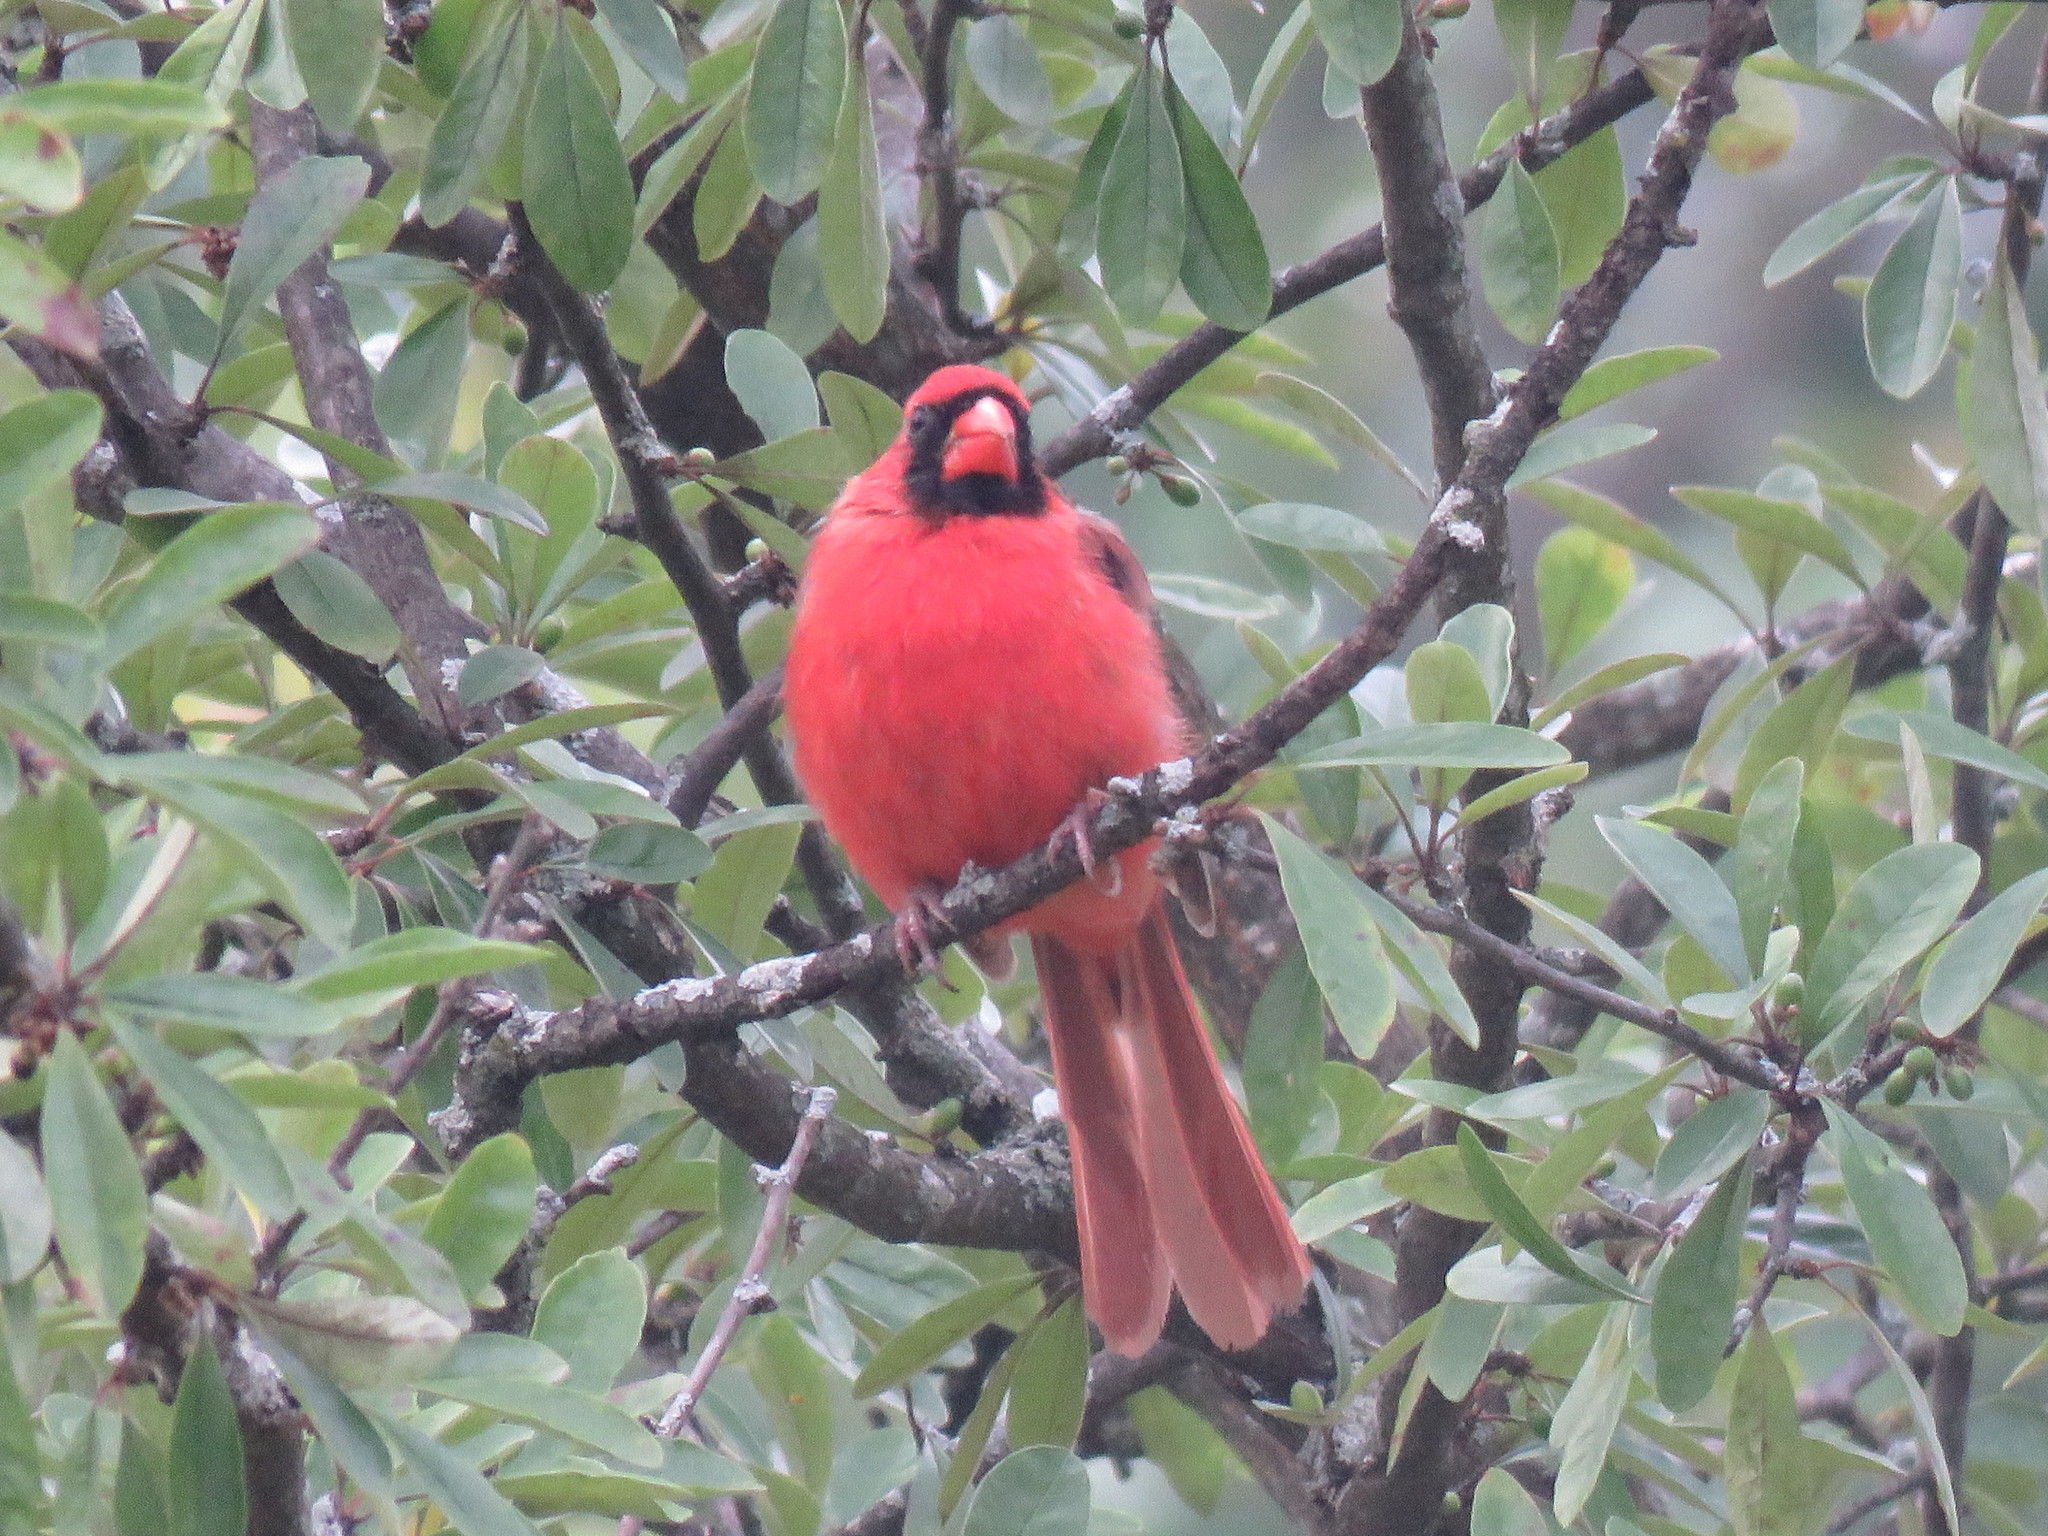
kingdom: Animalia
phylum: Chordata
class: Aves
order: Passeriformes
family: Cardinalidae
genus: Cardinalis
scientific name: Cardinalis cardinalis
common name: Northern cardinal
